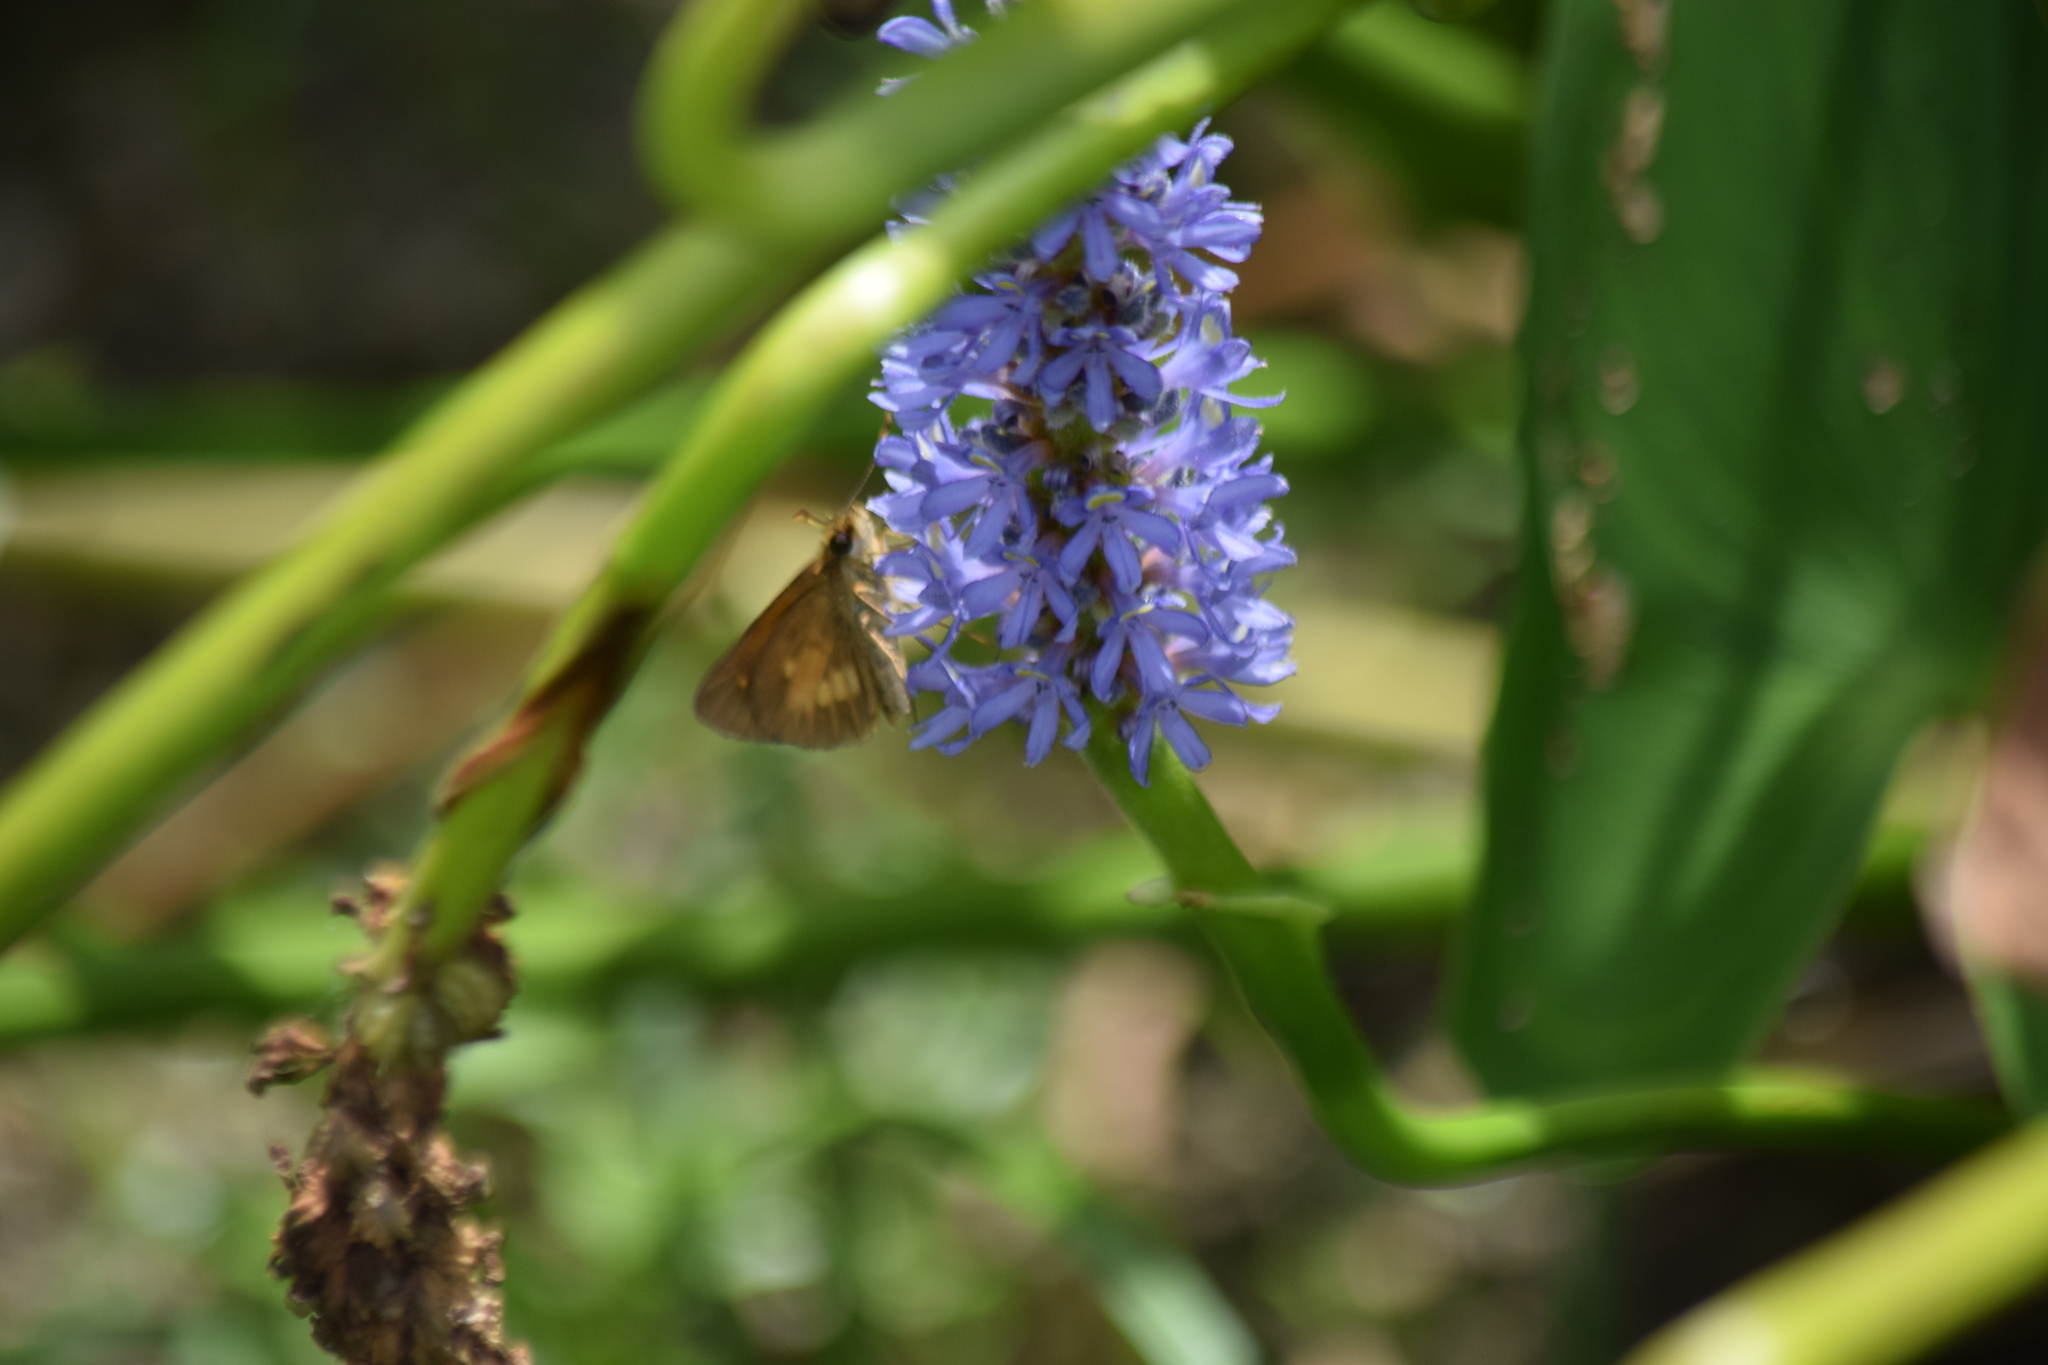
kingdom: Animalia
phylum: Arthropoda
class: Insecta
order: Lepidoptera
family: Hesperiidae
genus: Poanes
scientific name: Poanes viator
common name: Broad-winged skipper
